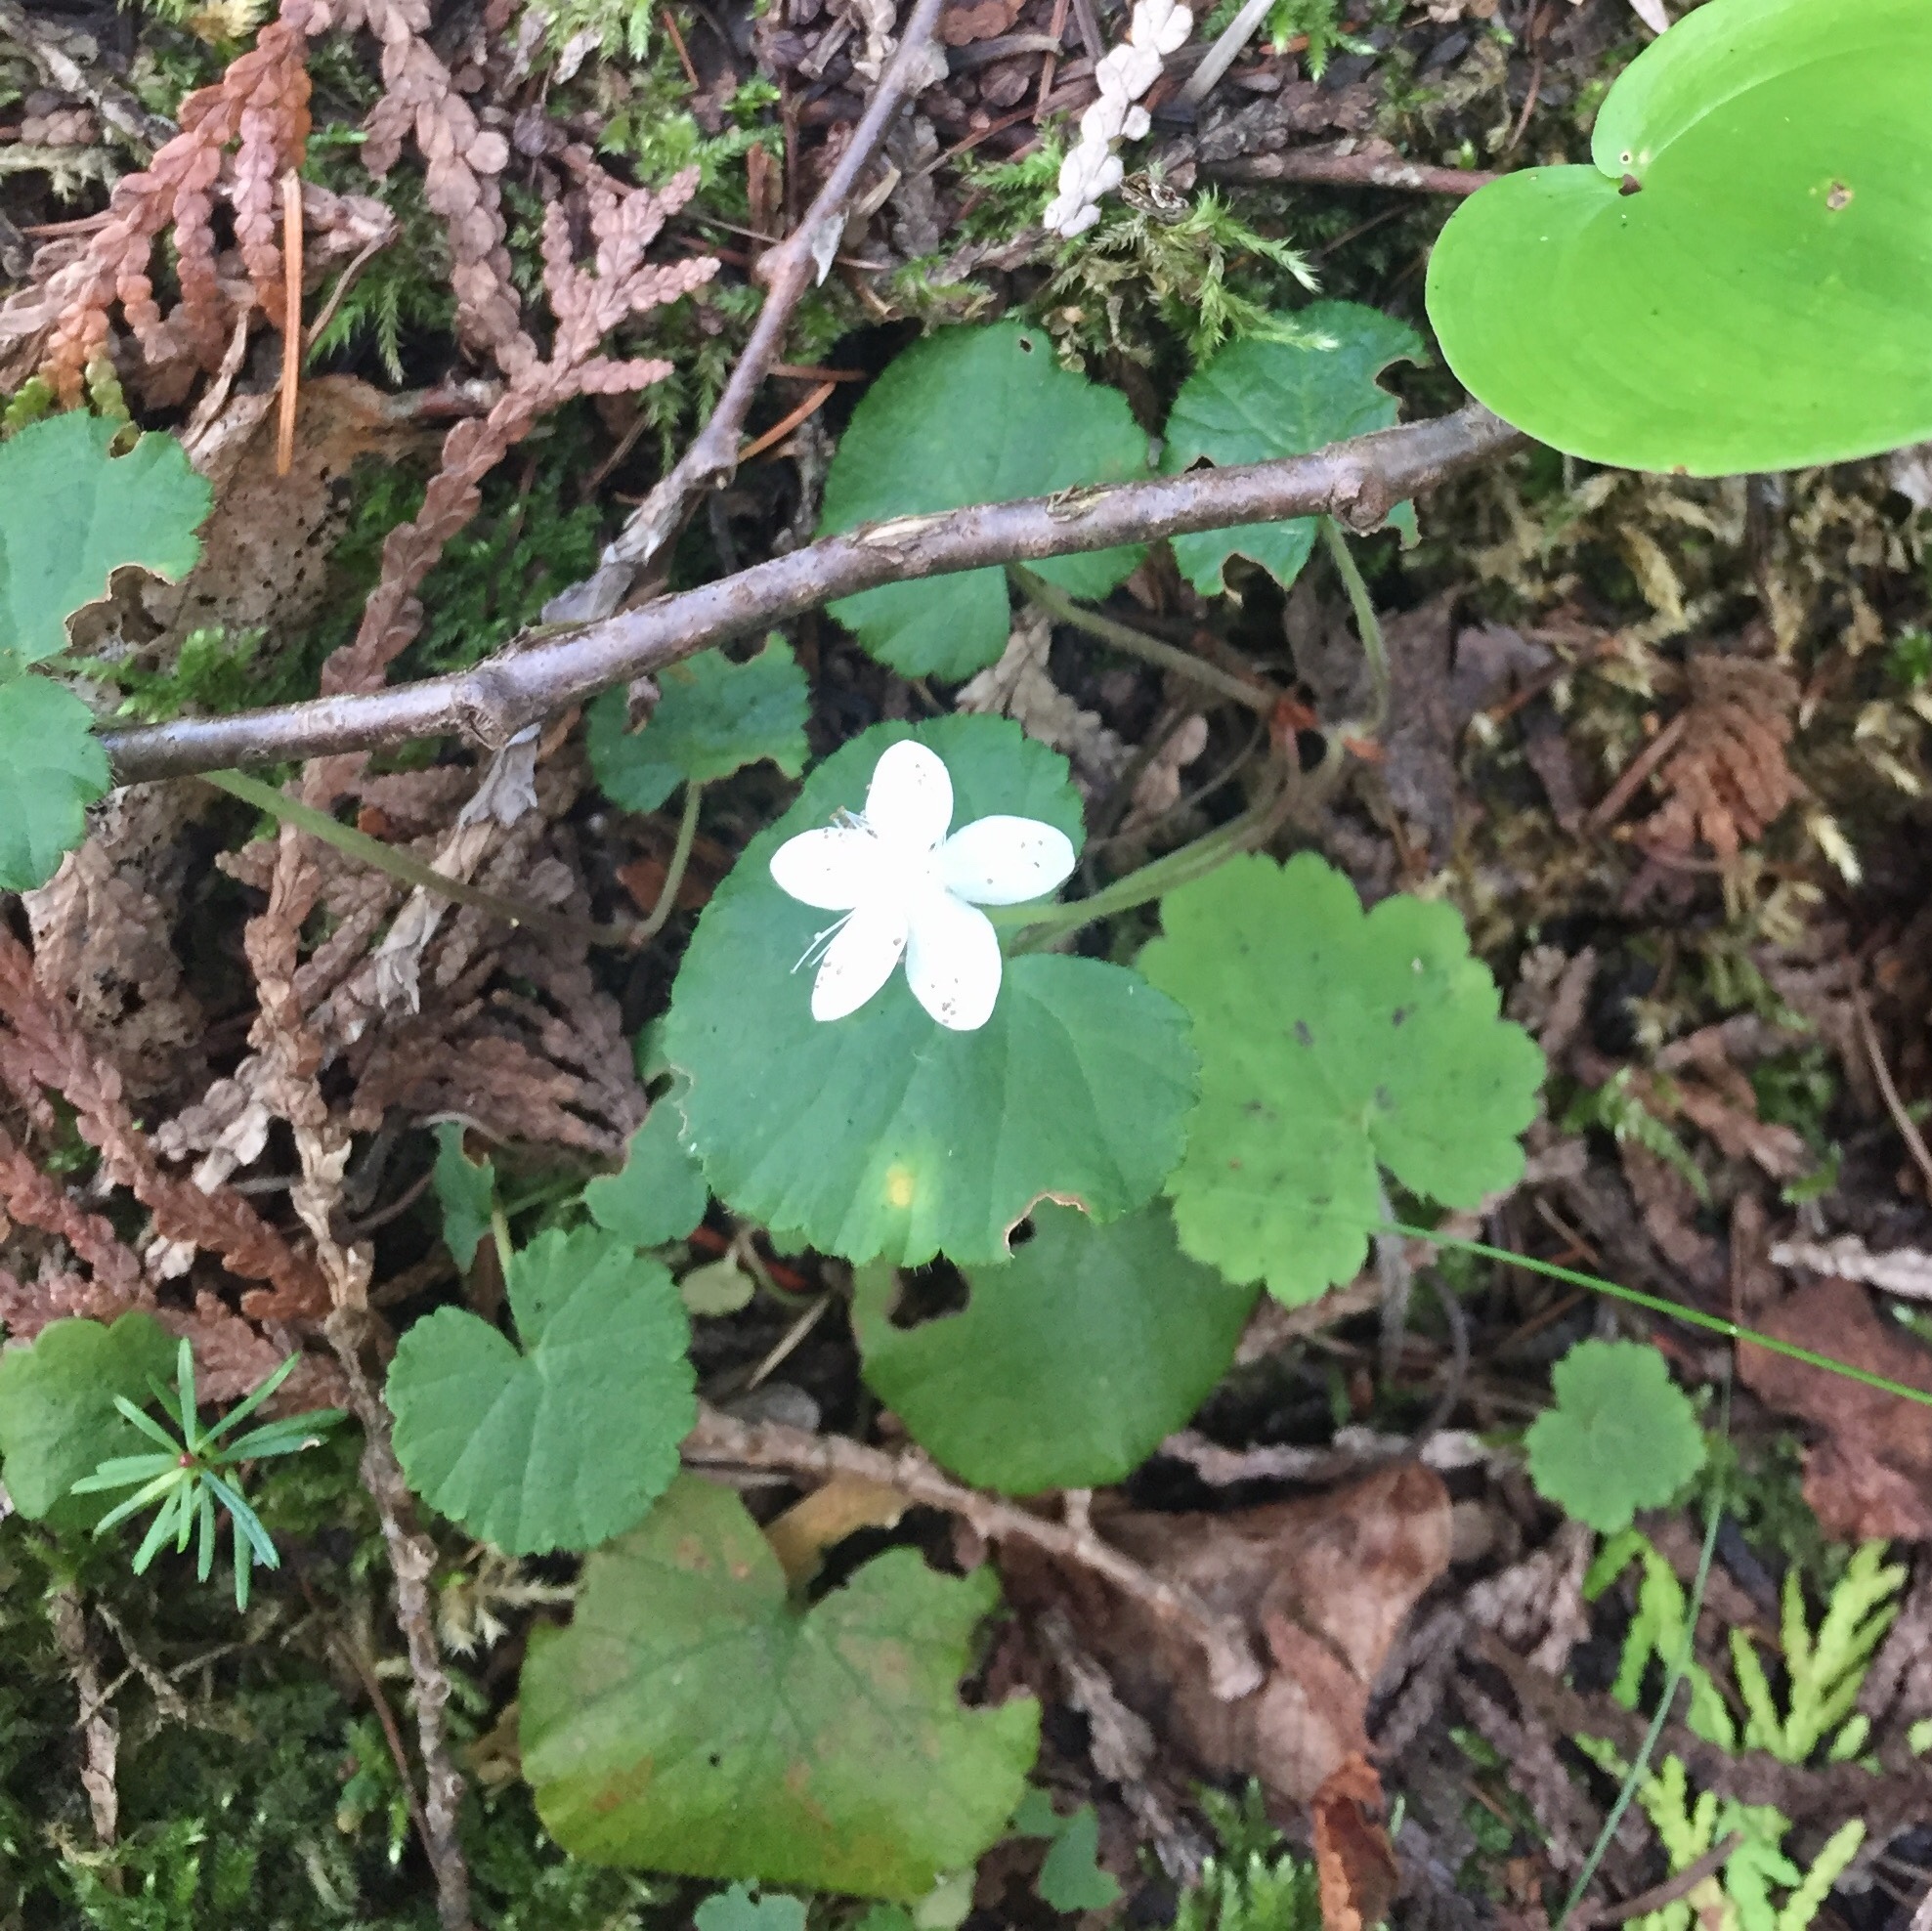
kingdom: Plantae
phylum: Tracheophyta
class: Magnoliopsida
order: Rosales
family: Rosaceae
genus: Dalibarda
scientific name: Dalibarda repens
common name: Dewdrop
